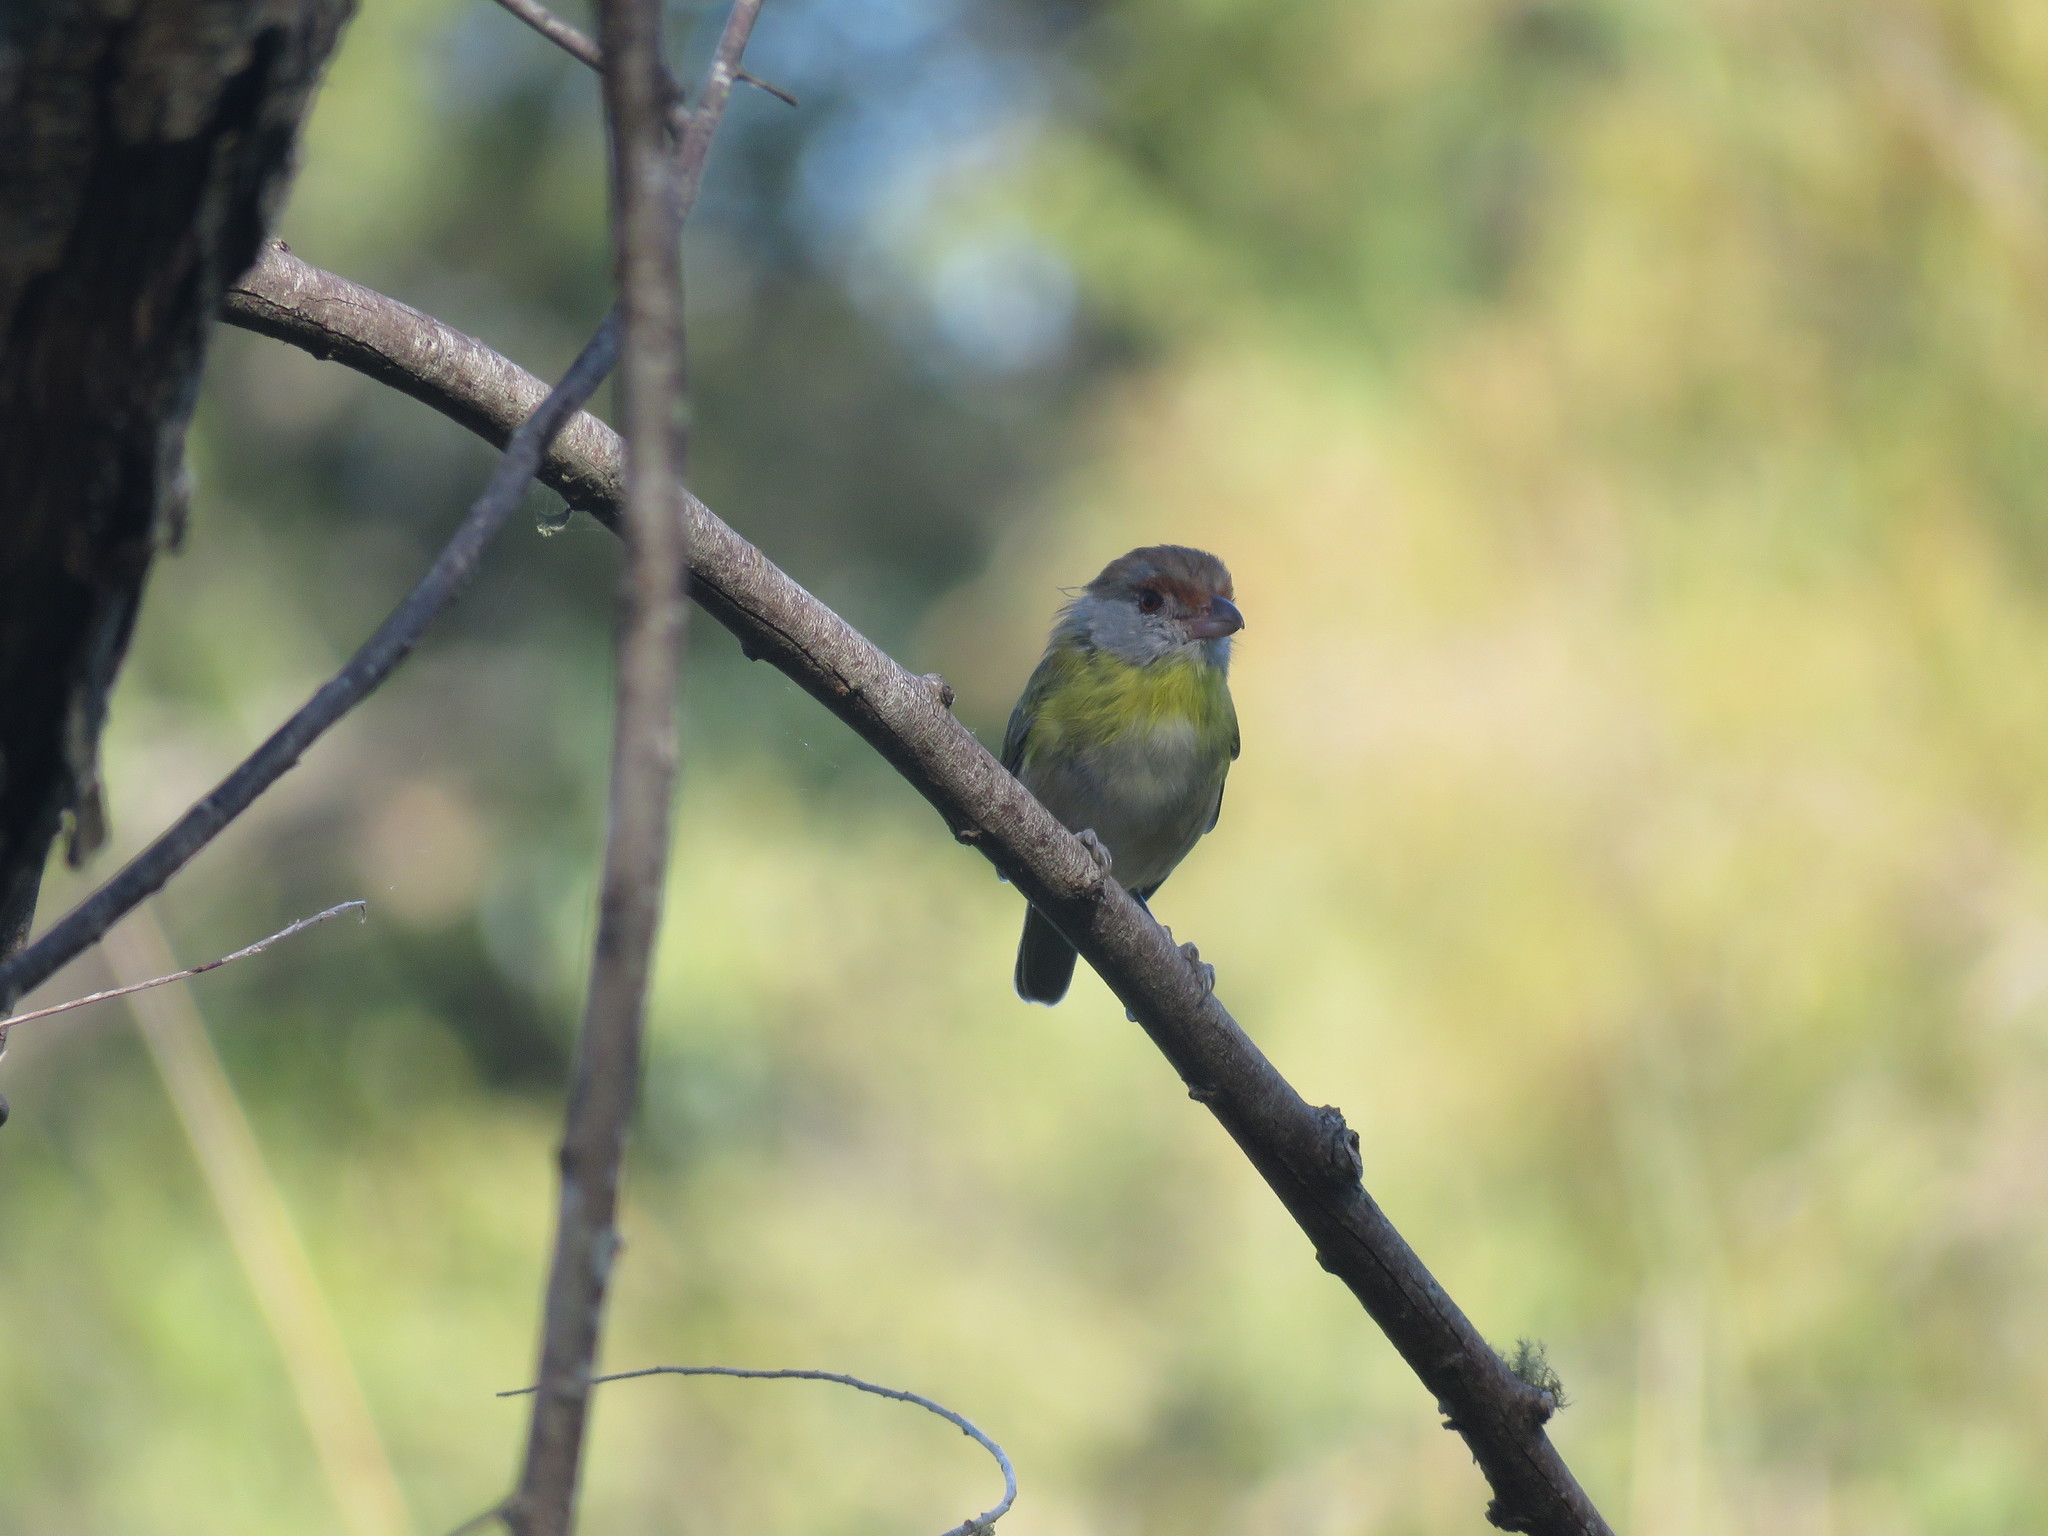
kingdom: Animalia
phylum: Chordata
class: Aves
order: Passeriformes
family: Vireonidae
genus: Cyclarhis
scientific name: Cyclarhis gujanensis
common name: Rufous-browed peppershrike
